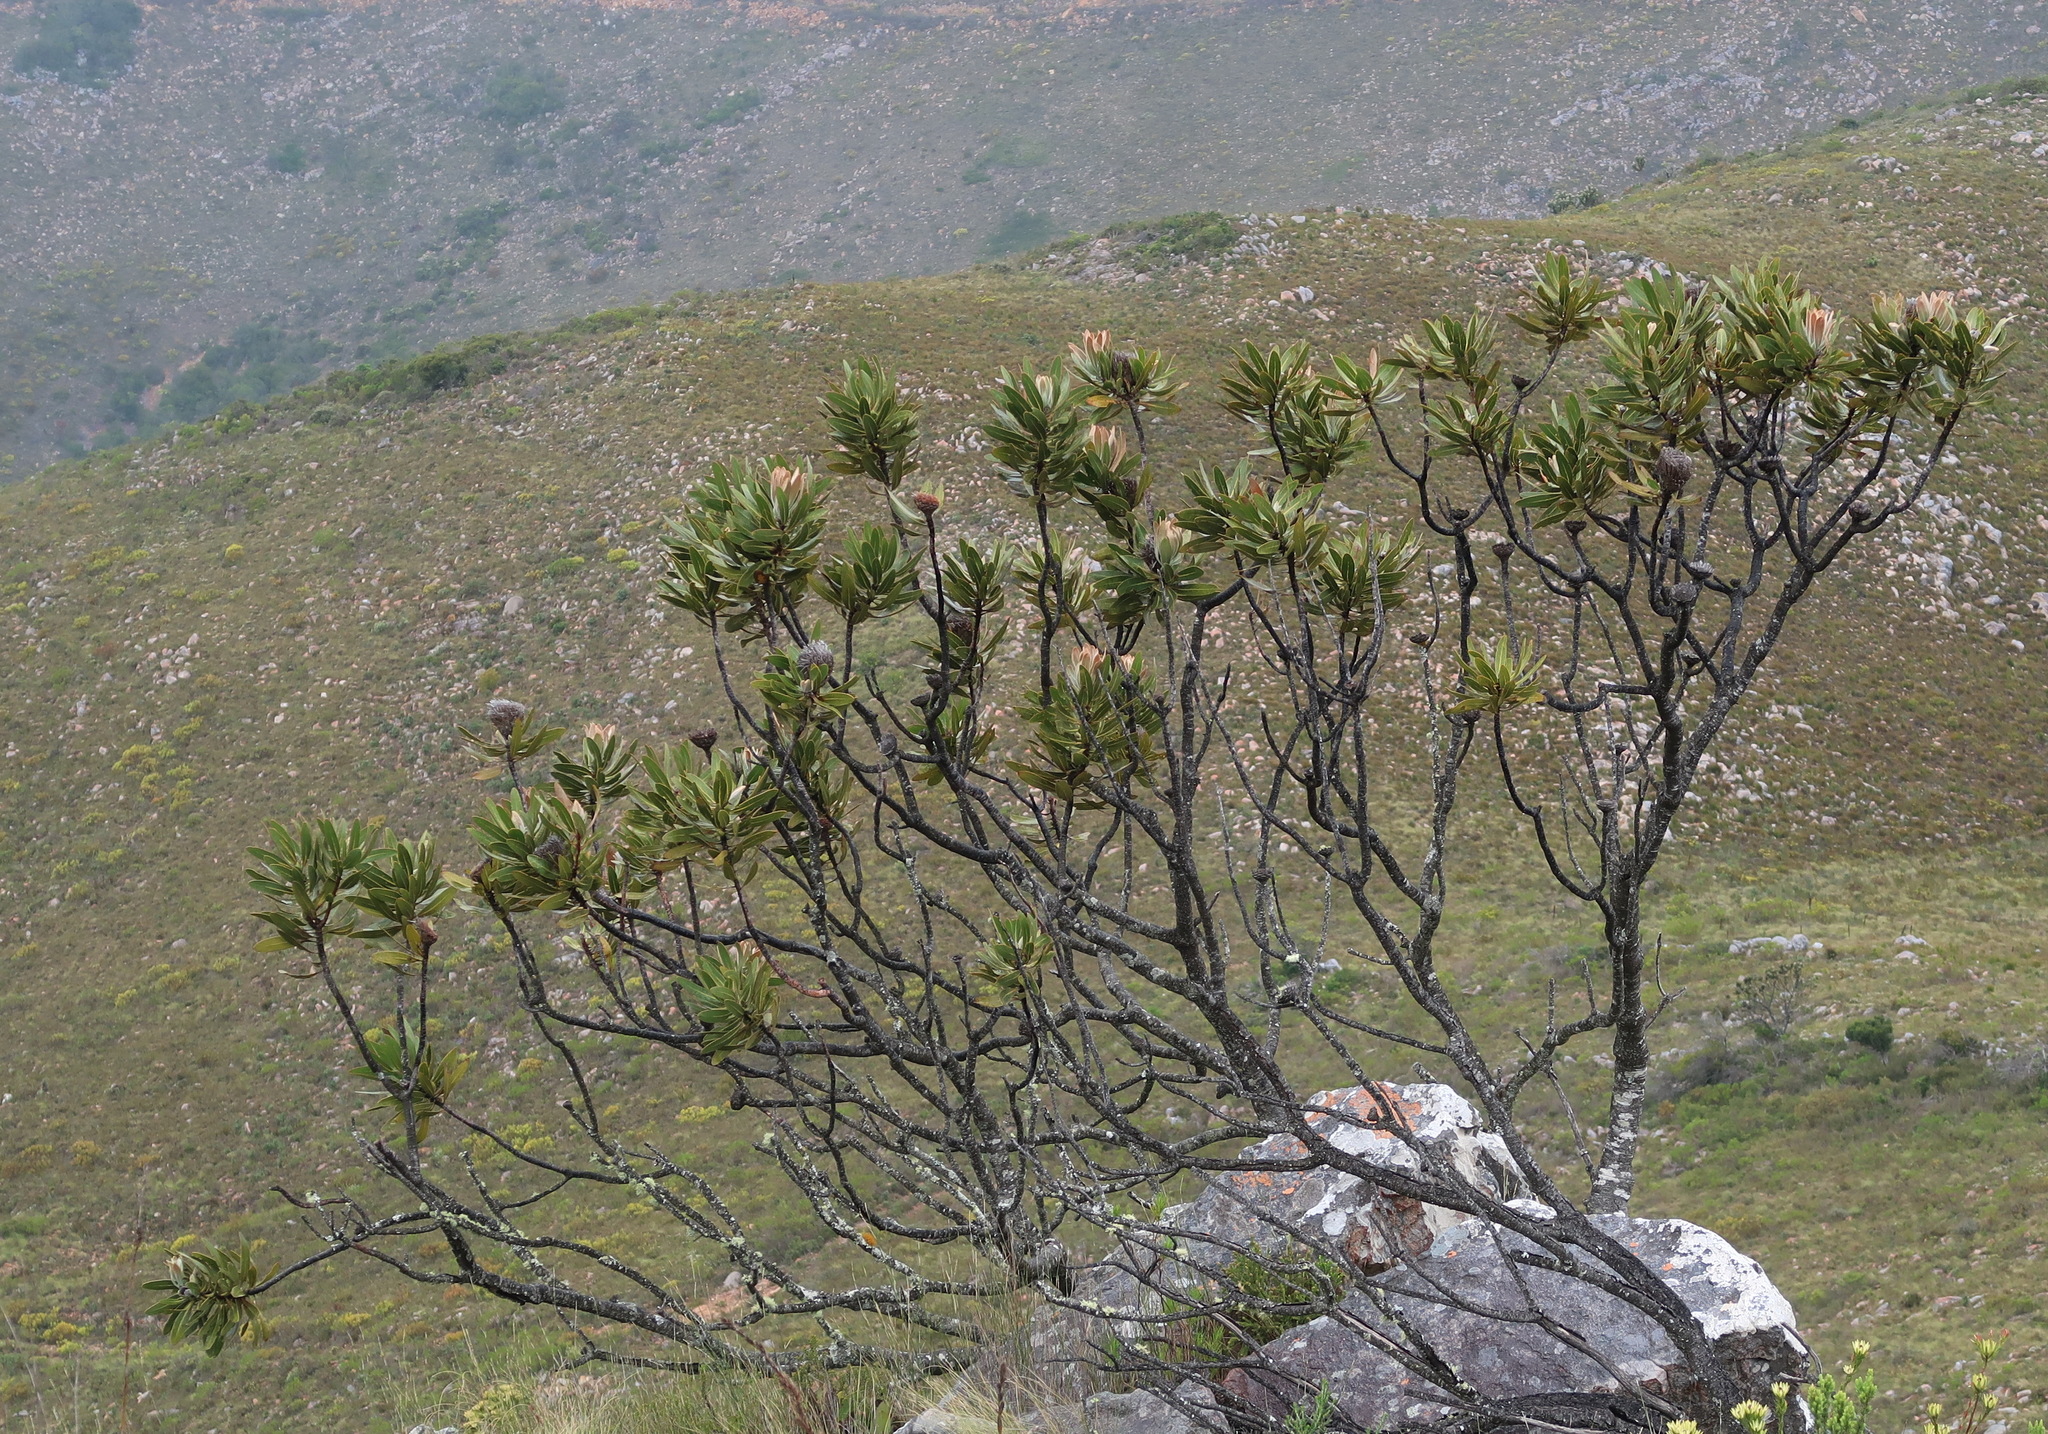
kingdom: Plantae
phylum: Tracheophyta
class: Magnoliopsida
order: Proteales
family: Proteaceae
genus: Protea
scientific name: Protea lorifolia
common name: Strap-leaved protea
